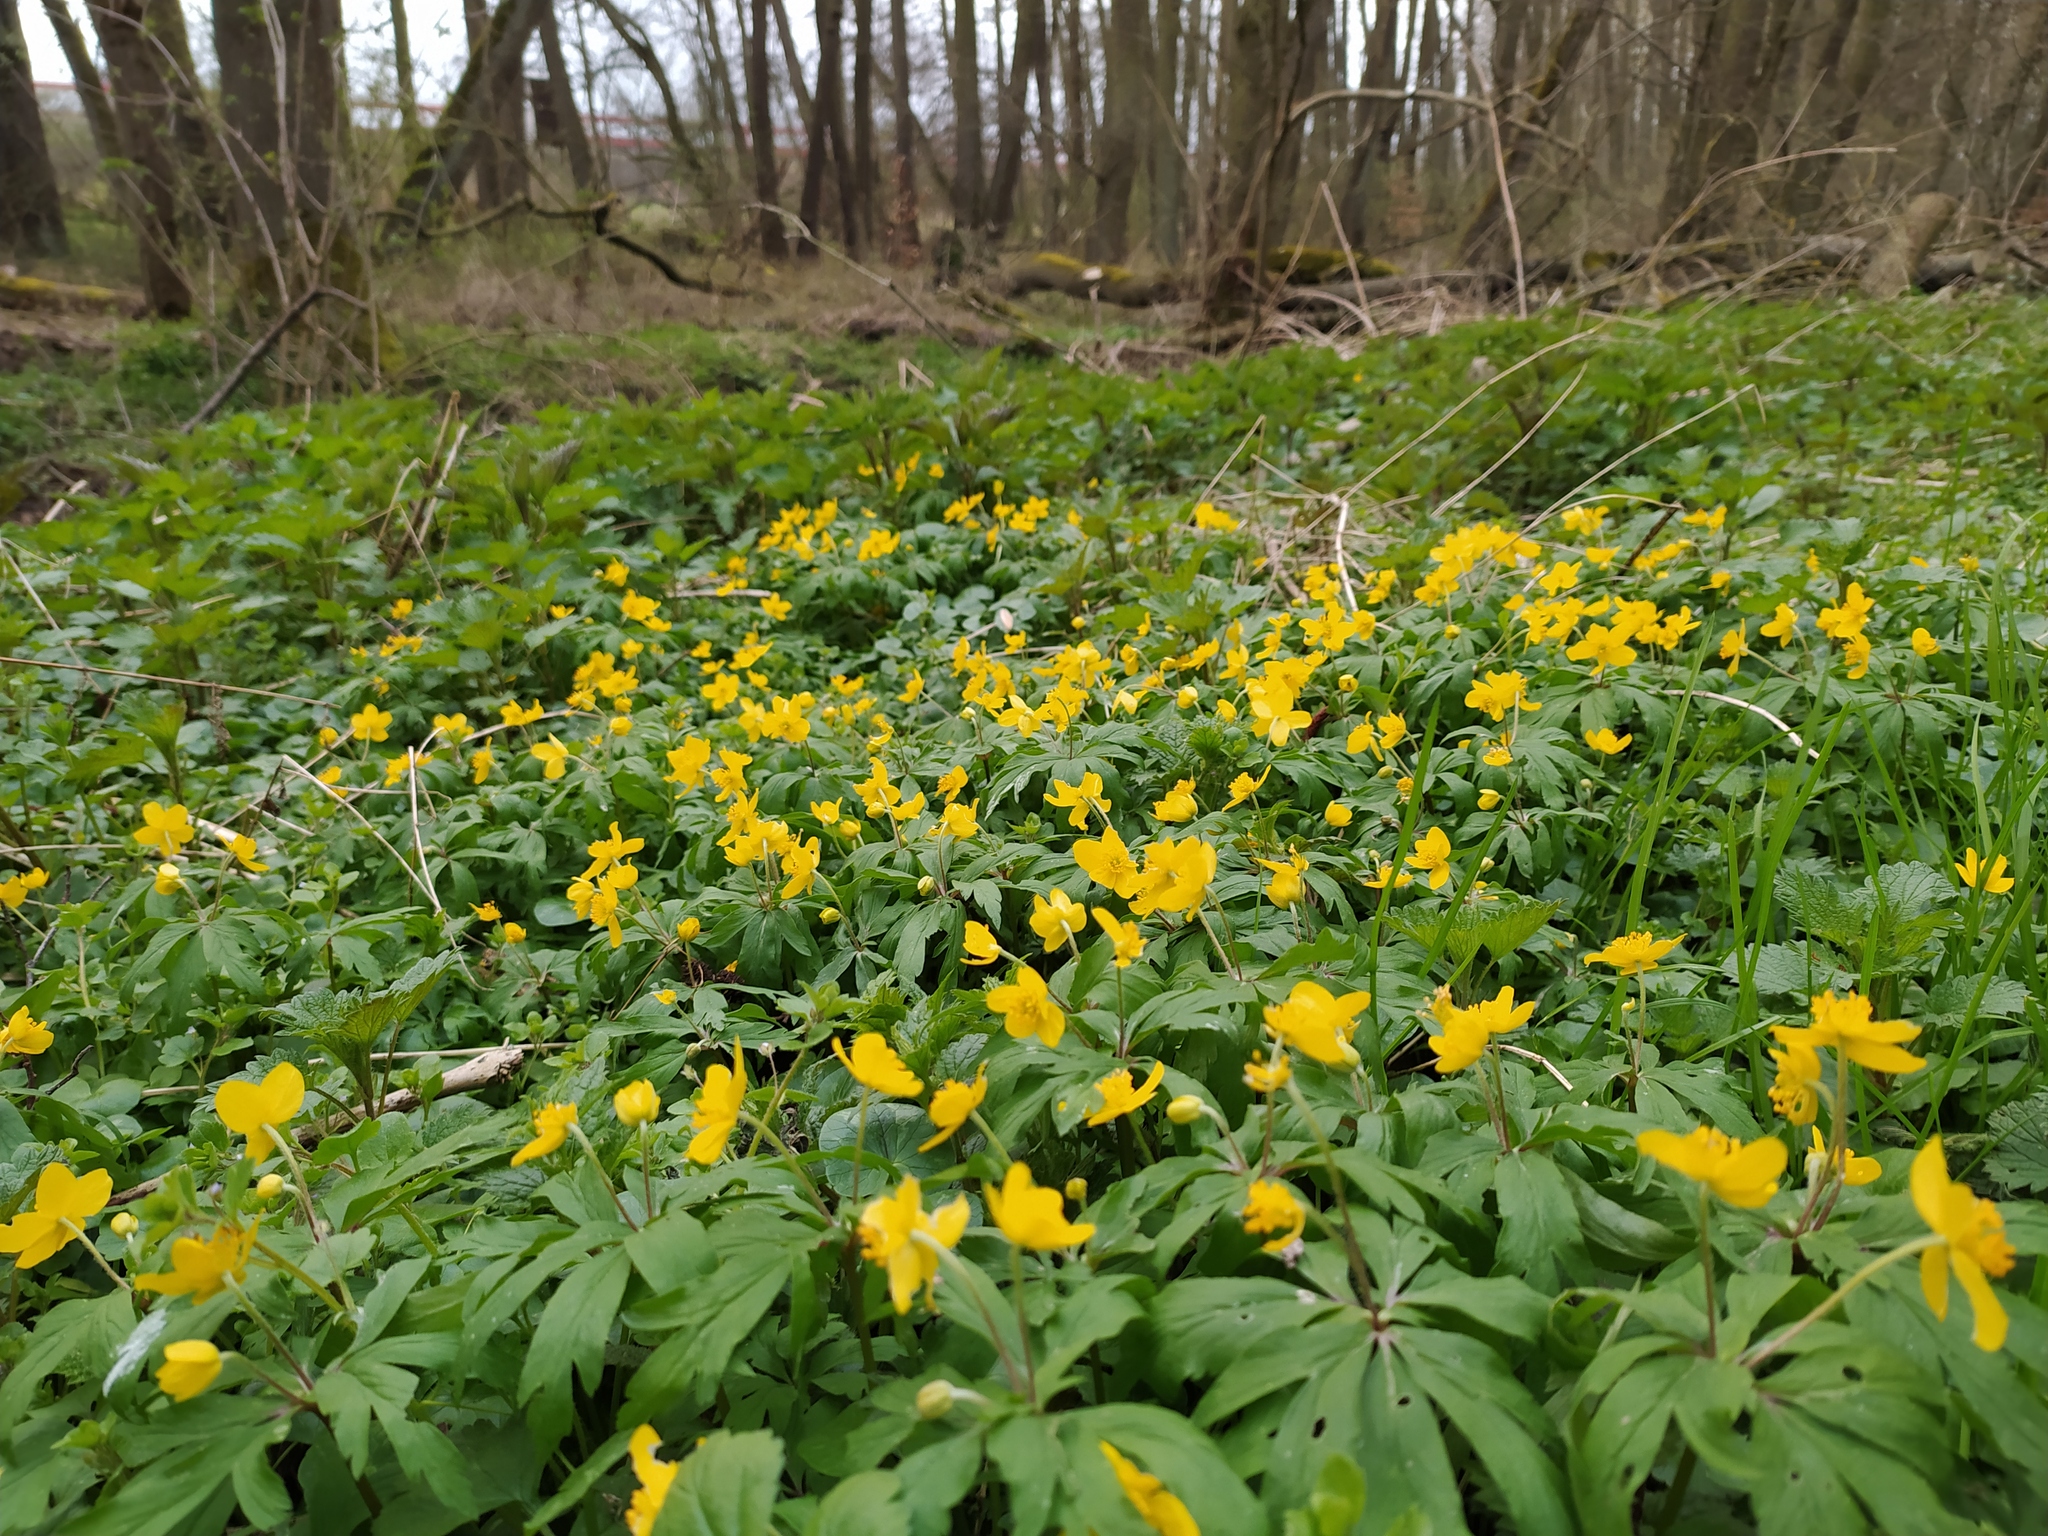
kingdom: Plantae
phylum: Tracheophyta
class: Magnoliopsida
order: Ranunculales
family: Ranunculaceae
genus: Anemone
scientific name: Anemone ranunculoides
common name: Yellow anemone
